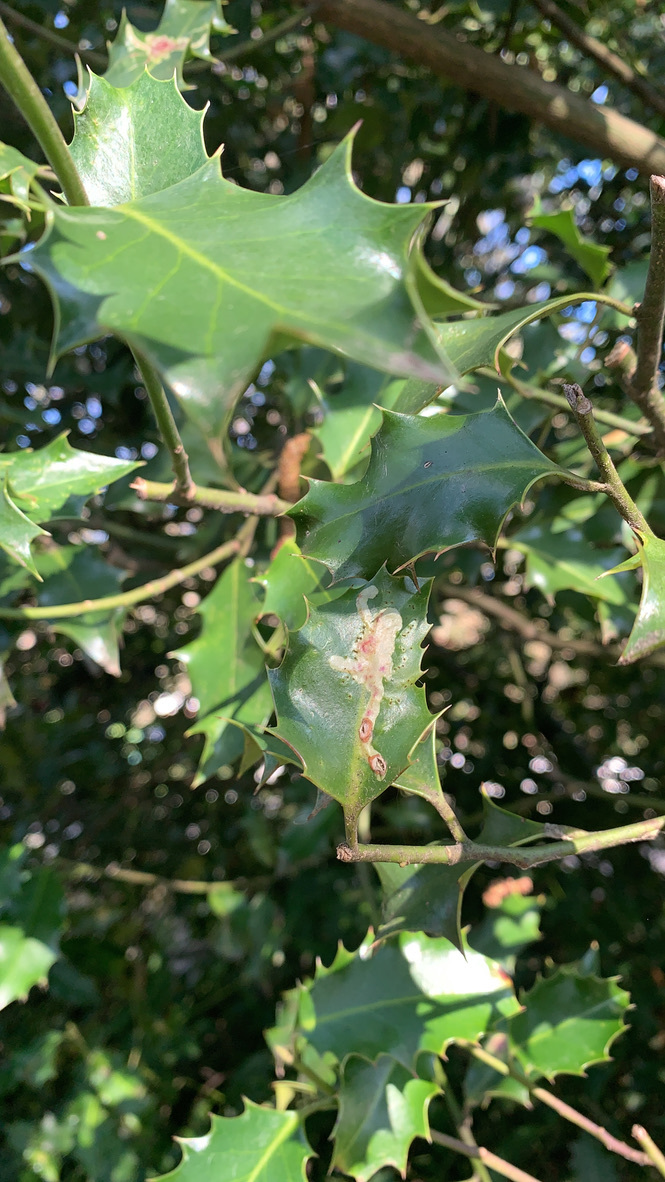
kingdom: Animalia
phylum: Arthropoda
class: Insecta
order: Diptera
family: Agromyzidae
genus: Phytomyza
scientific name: Phytomyza ilicis
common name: Holly leafminer
